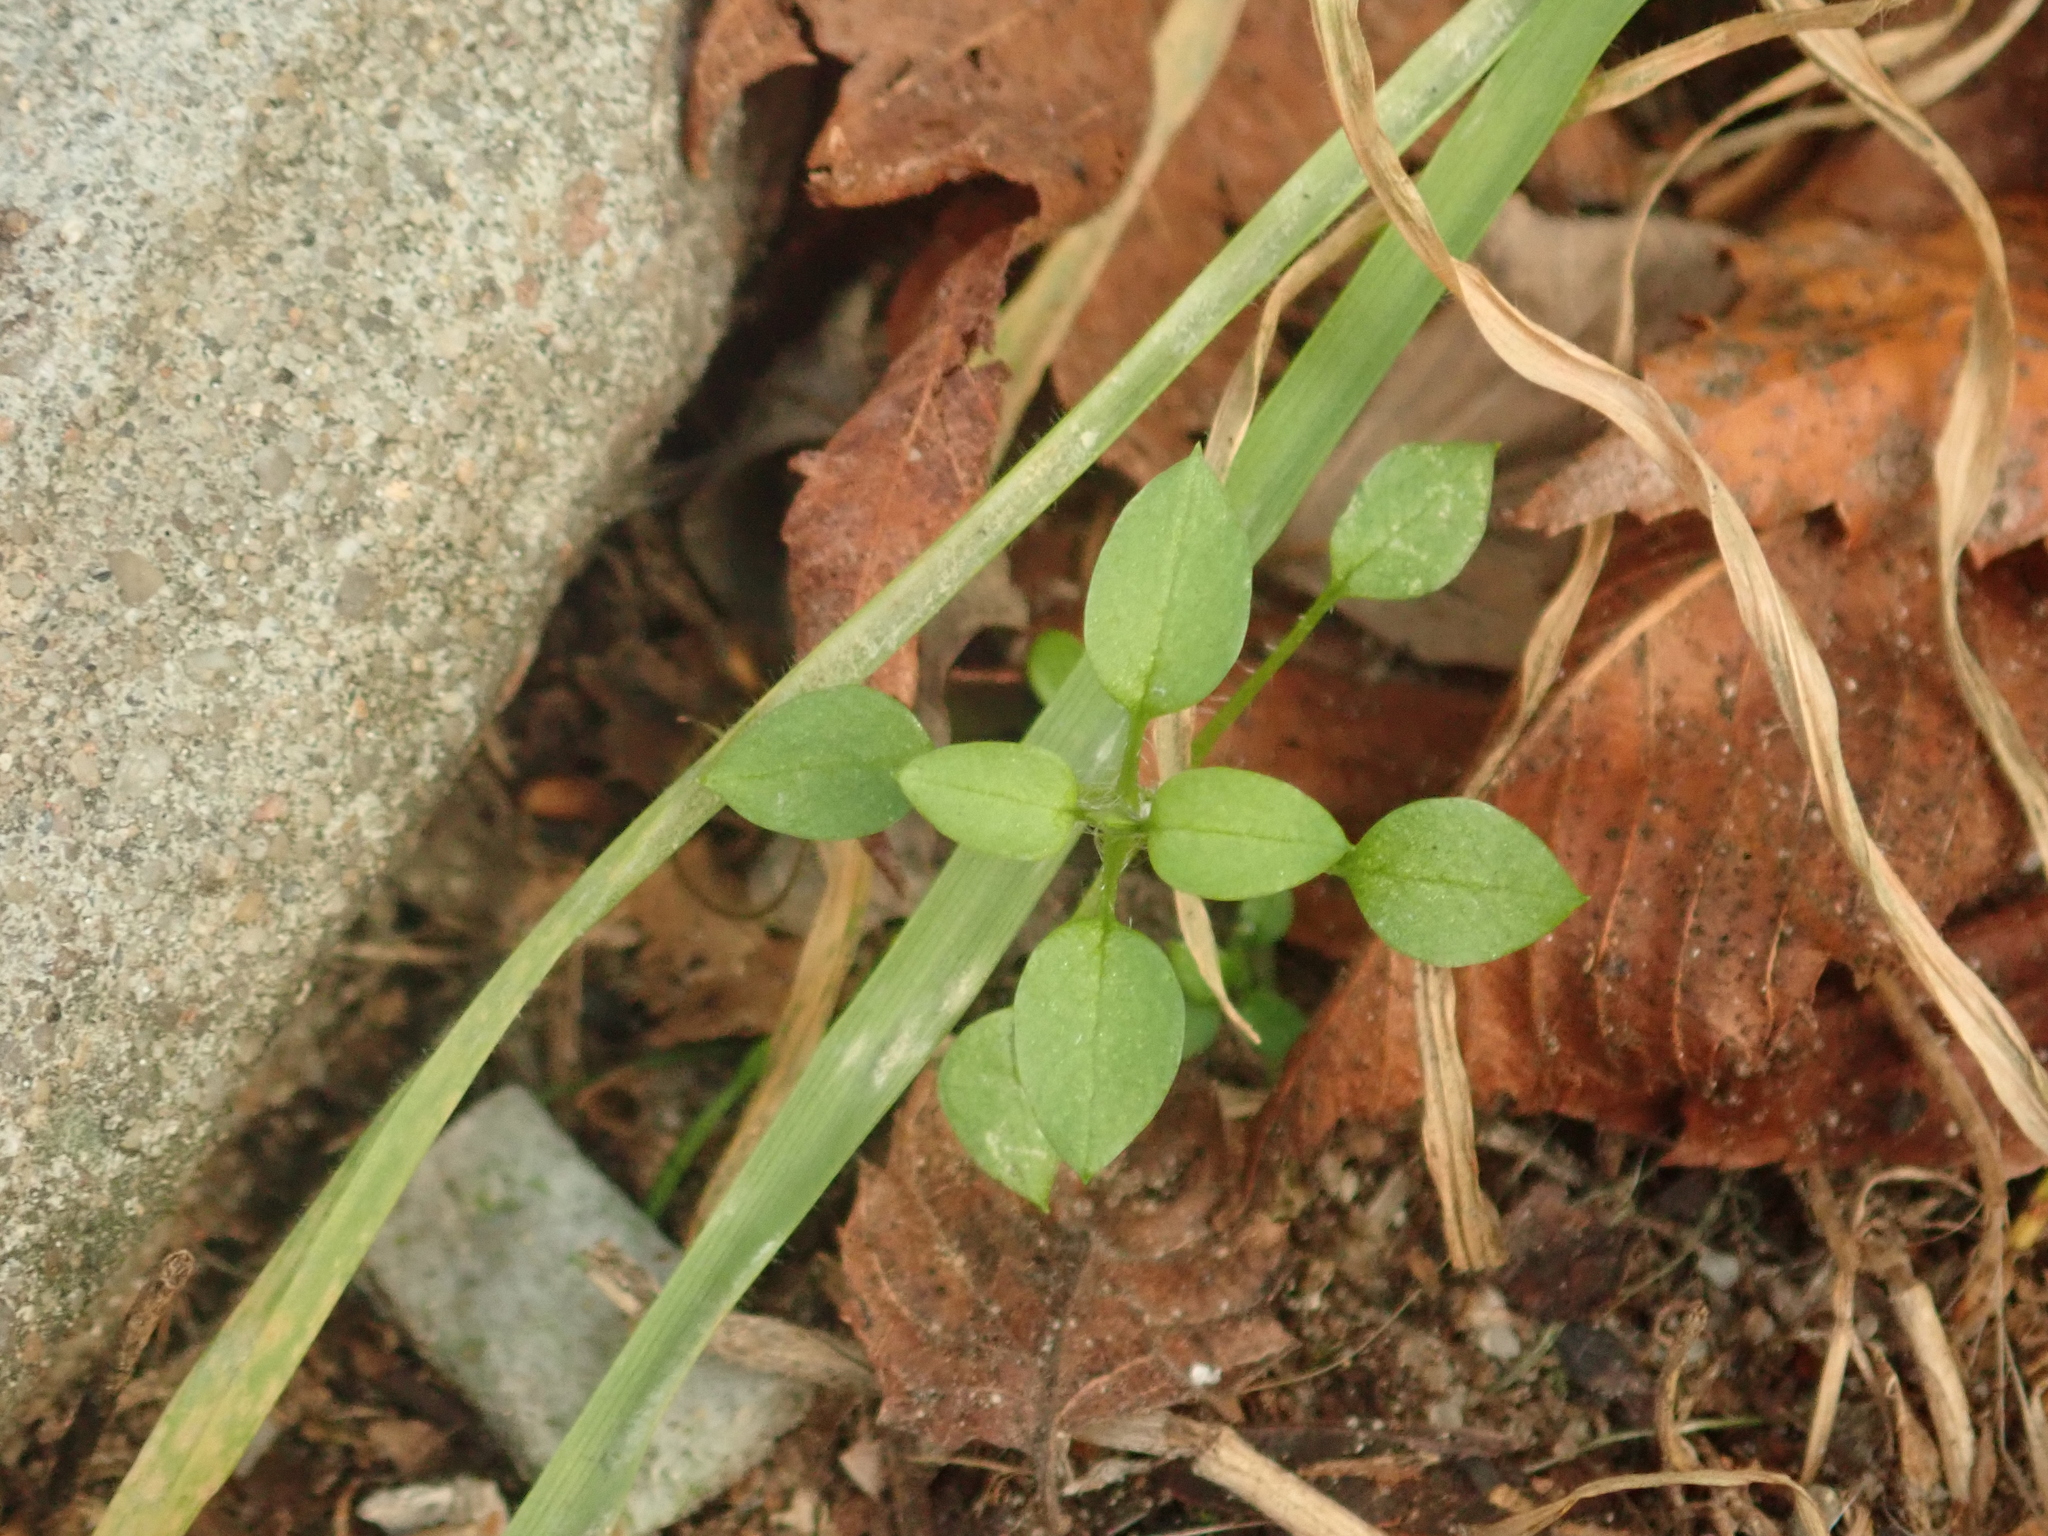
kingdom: Plantae
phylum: Tracheophyta
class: Magnoliopsida
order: Caryophyllales
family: Caryophyllaceae
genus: Stellaria
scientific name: Stellaria media
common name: Common chickweed
